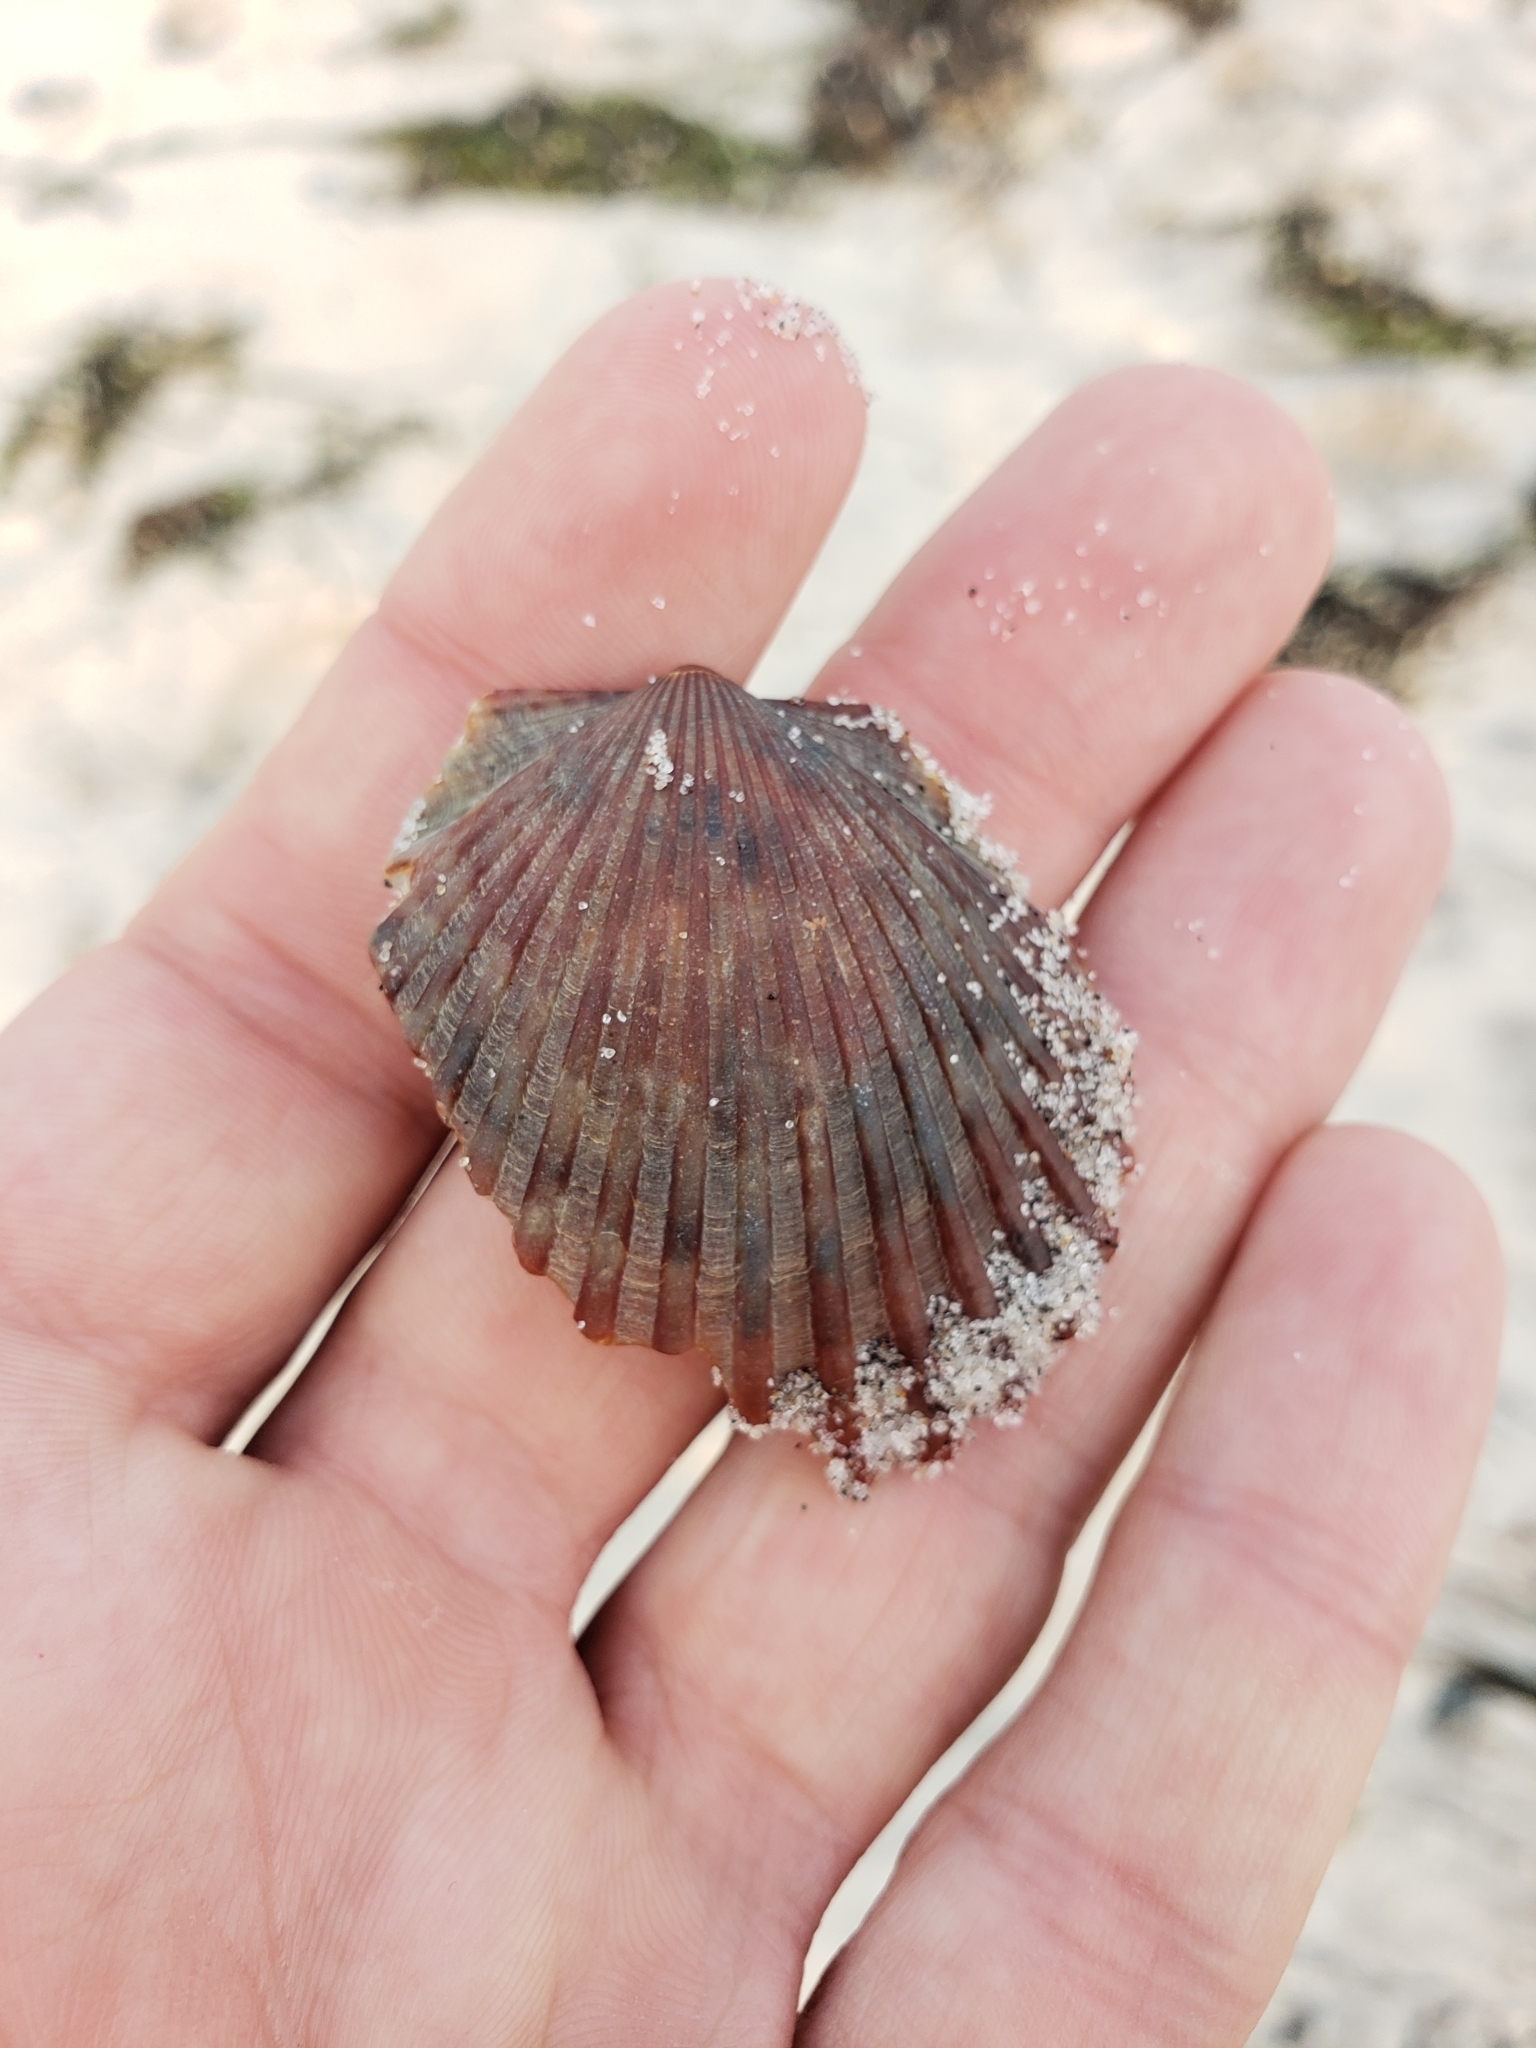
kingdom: Animalia
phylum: Mollusca
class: Bivalvia
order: Pectinida
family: Pectinidae
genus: Argopecten
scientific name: Argopecten irradians
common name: Atlantic bay scallop
